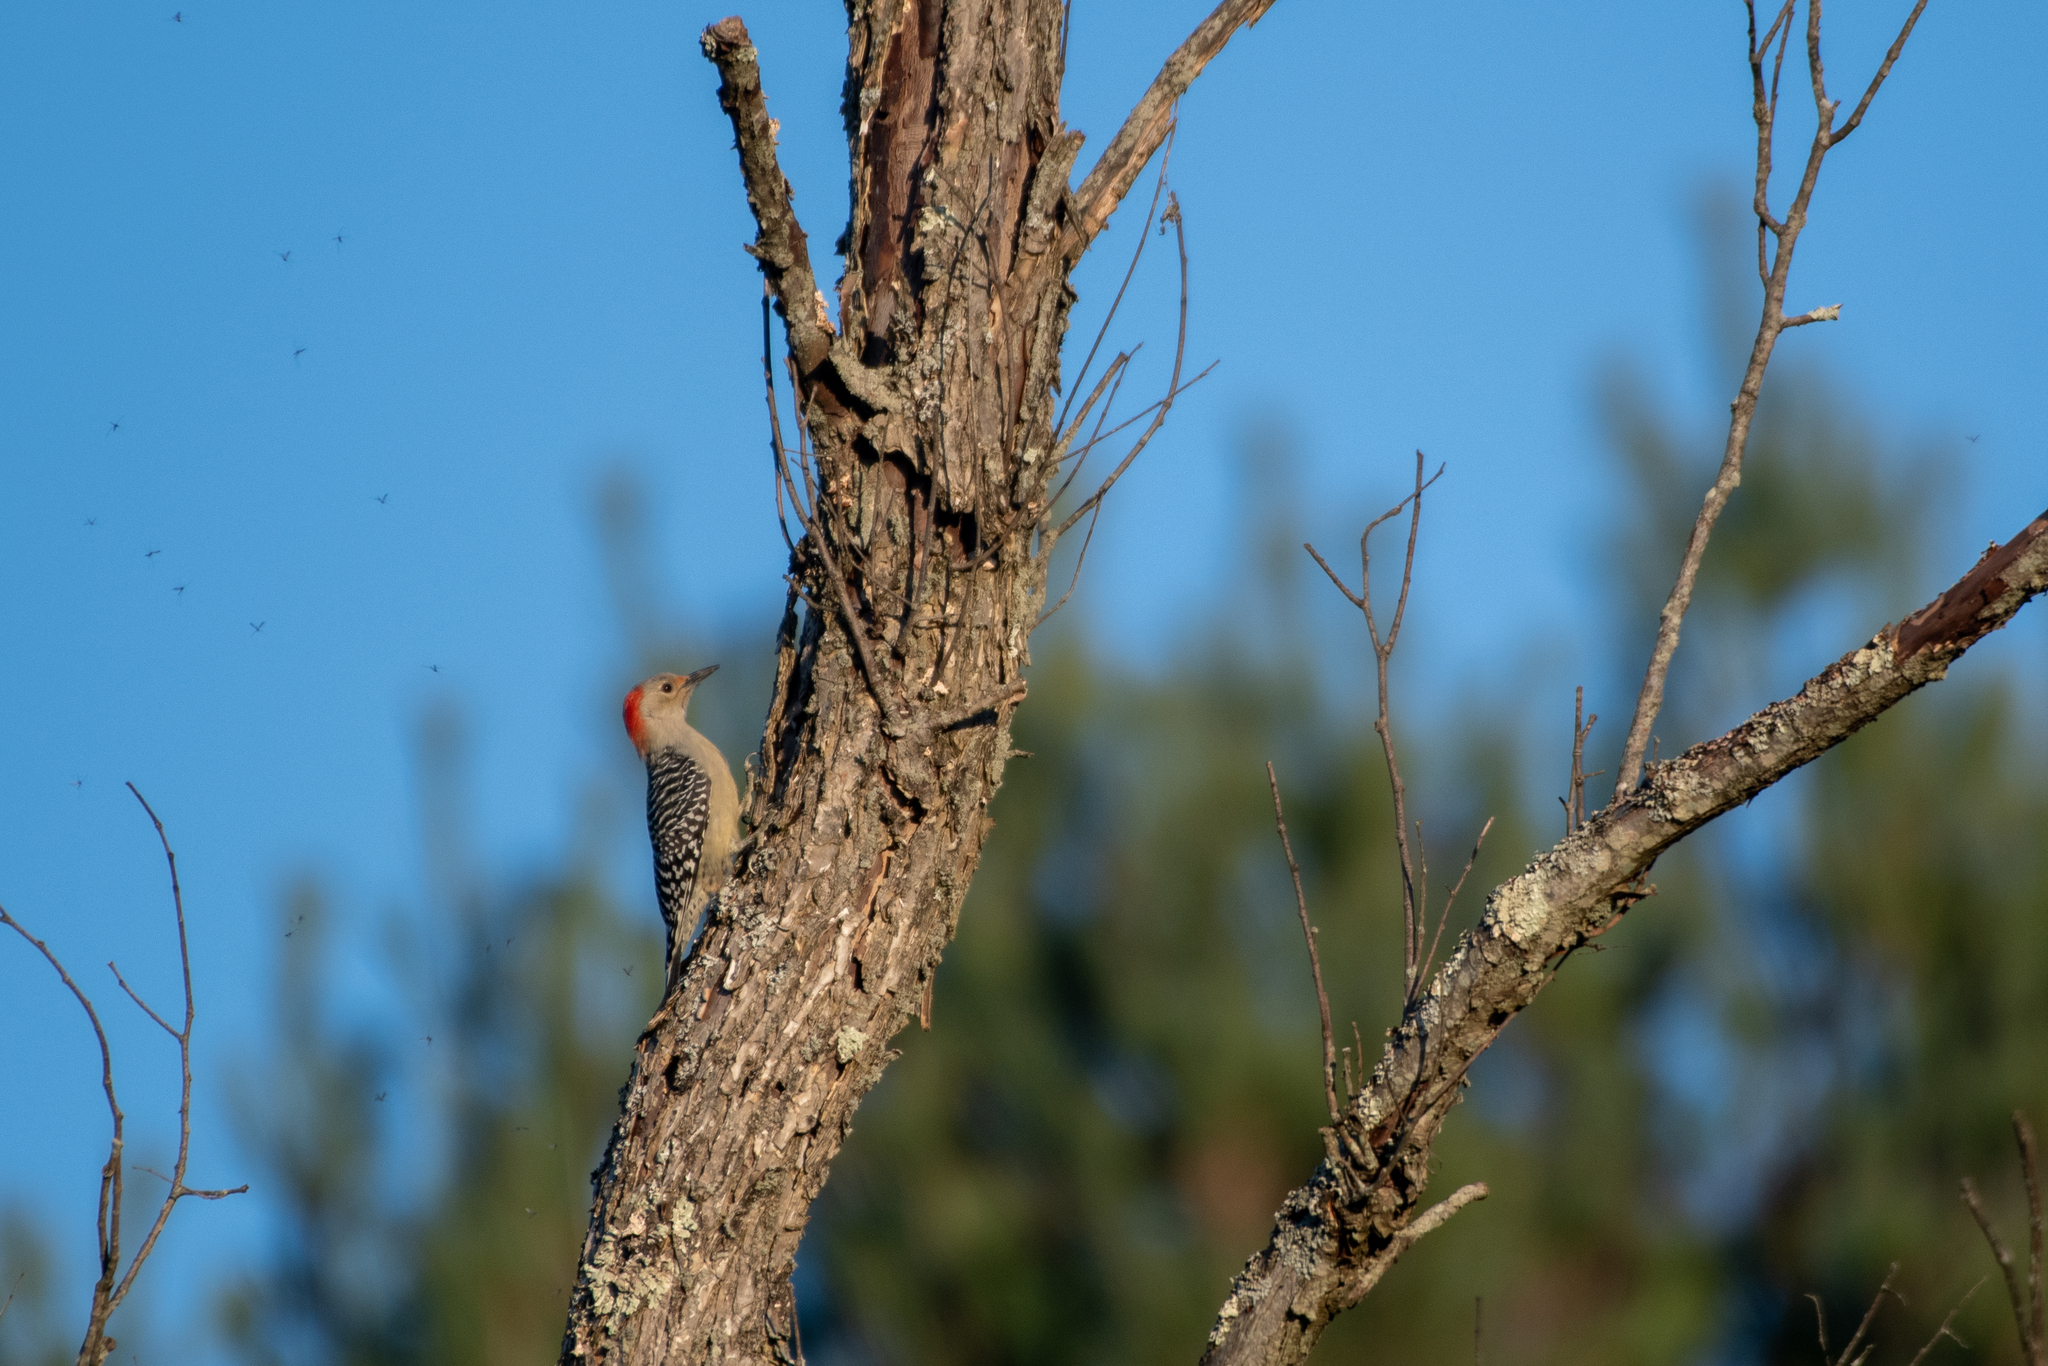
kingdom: Animalia
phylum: Chordata
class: Aves
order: Piciformes
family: Picidae
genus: Melanerpes
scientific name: Melanerpes carolinus
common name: Red-bellied woodpecker
